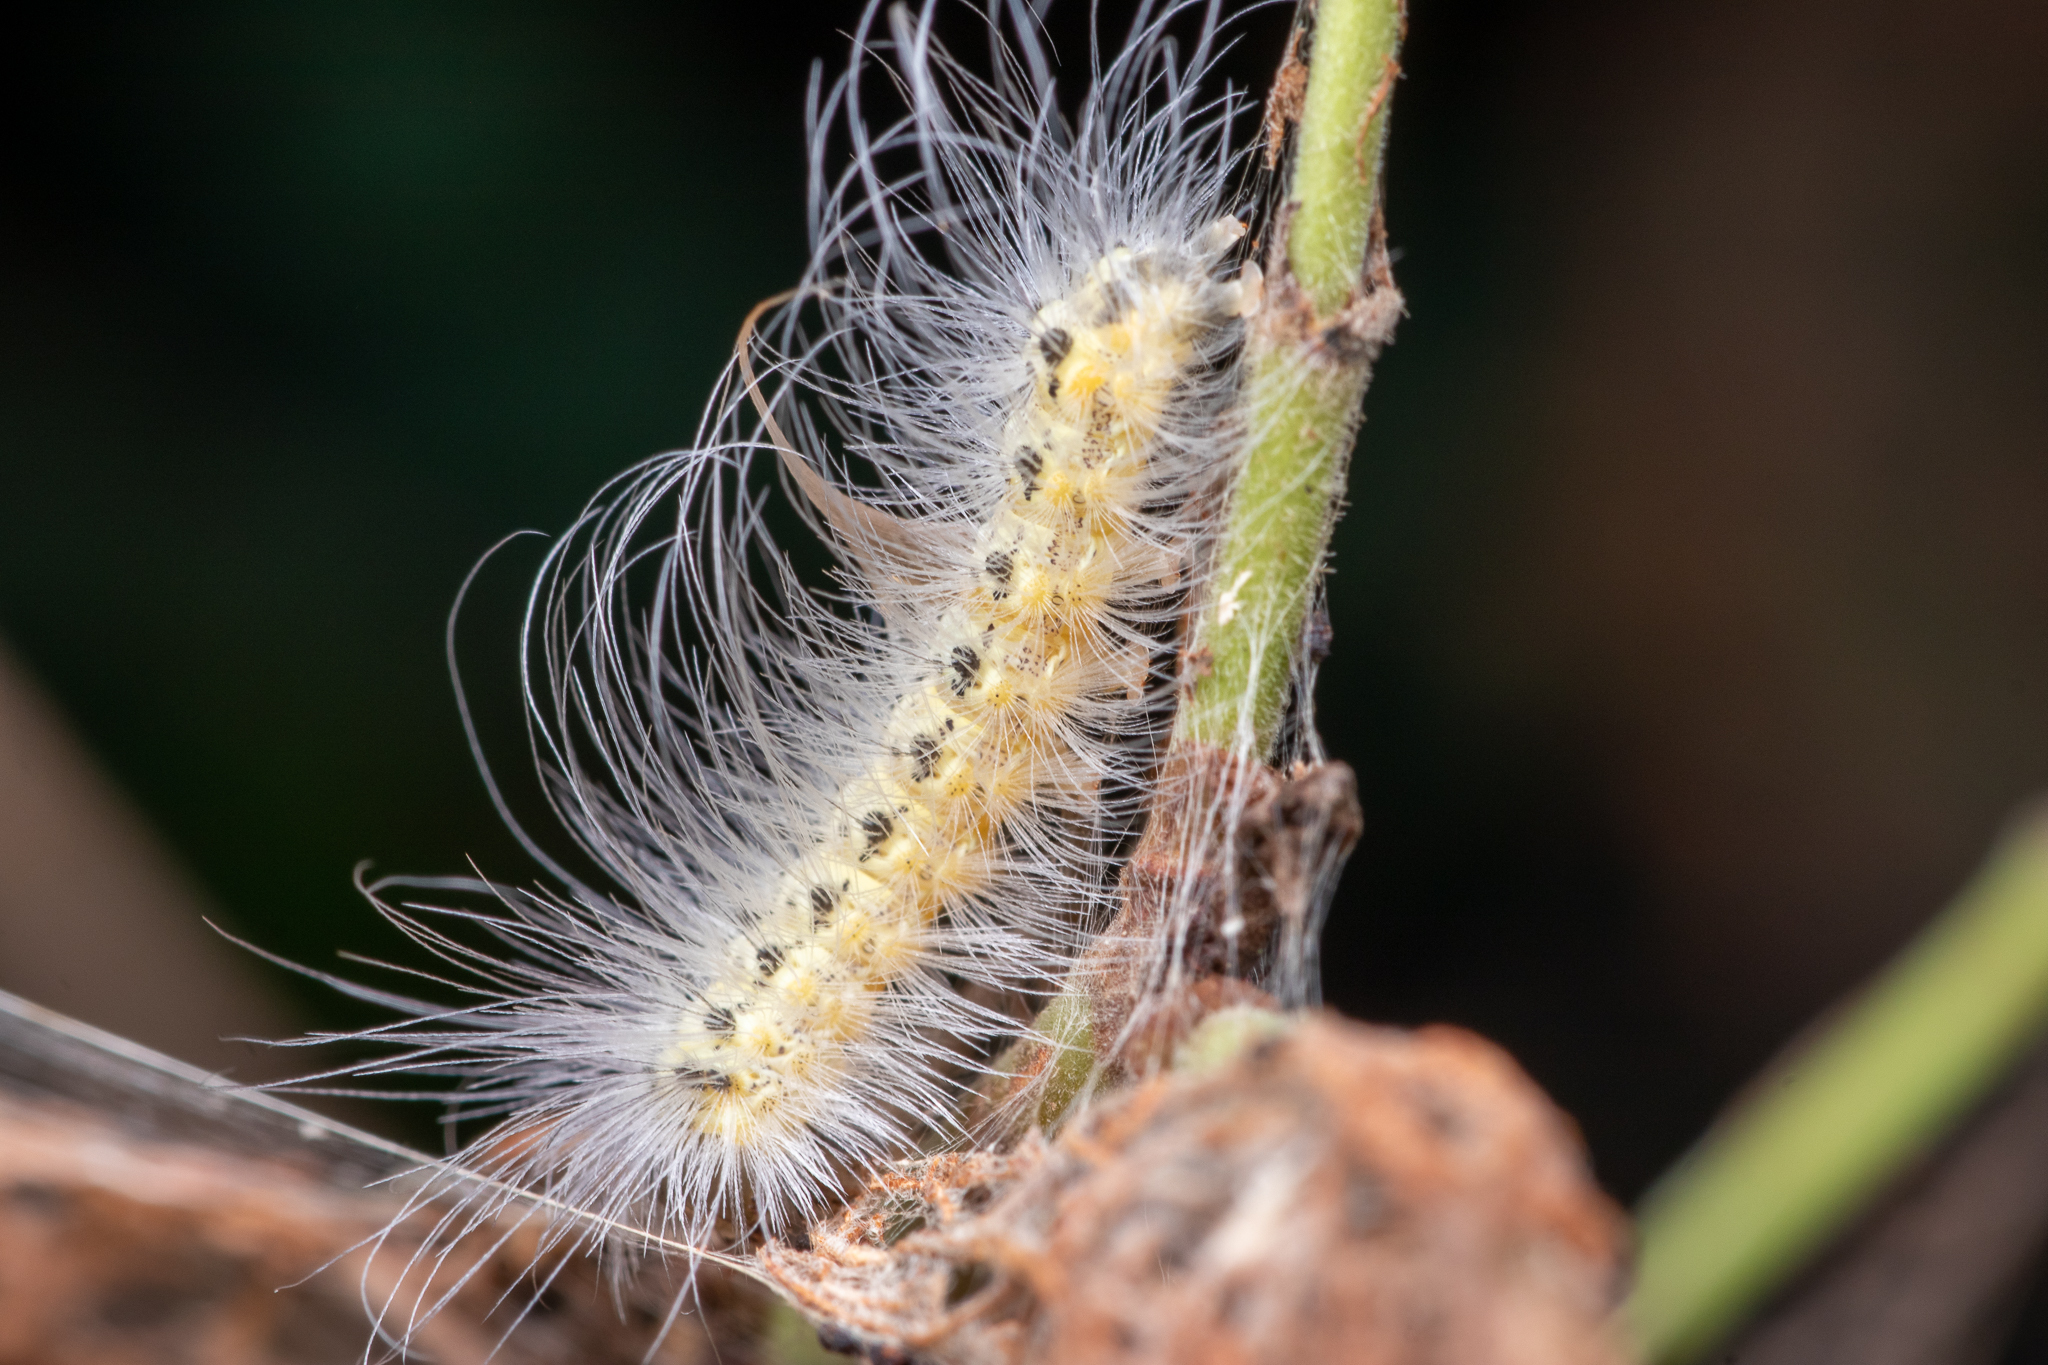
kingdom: Animalia
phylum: Arthropoda
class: Insecta
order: Lepidoptera
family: Erebidae
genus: Hyphantria
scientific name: Hyphantria cunea
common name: American white moth
